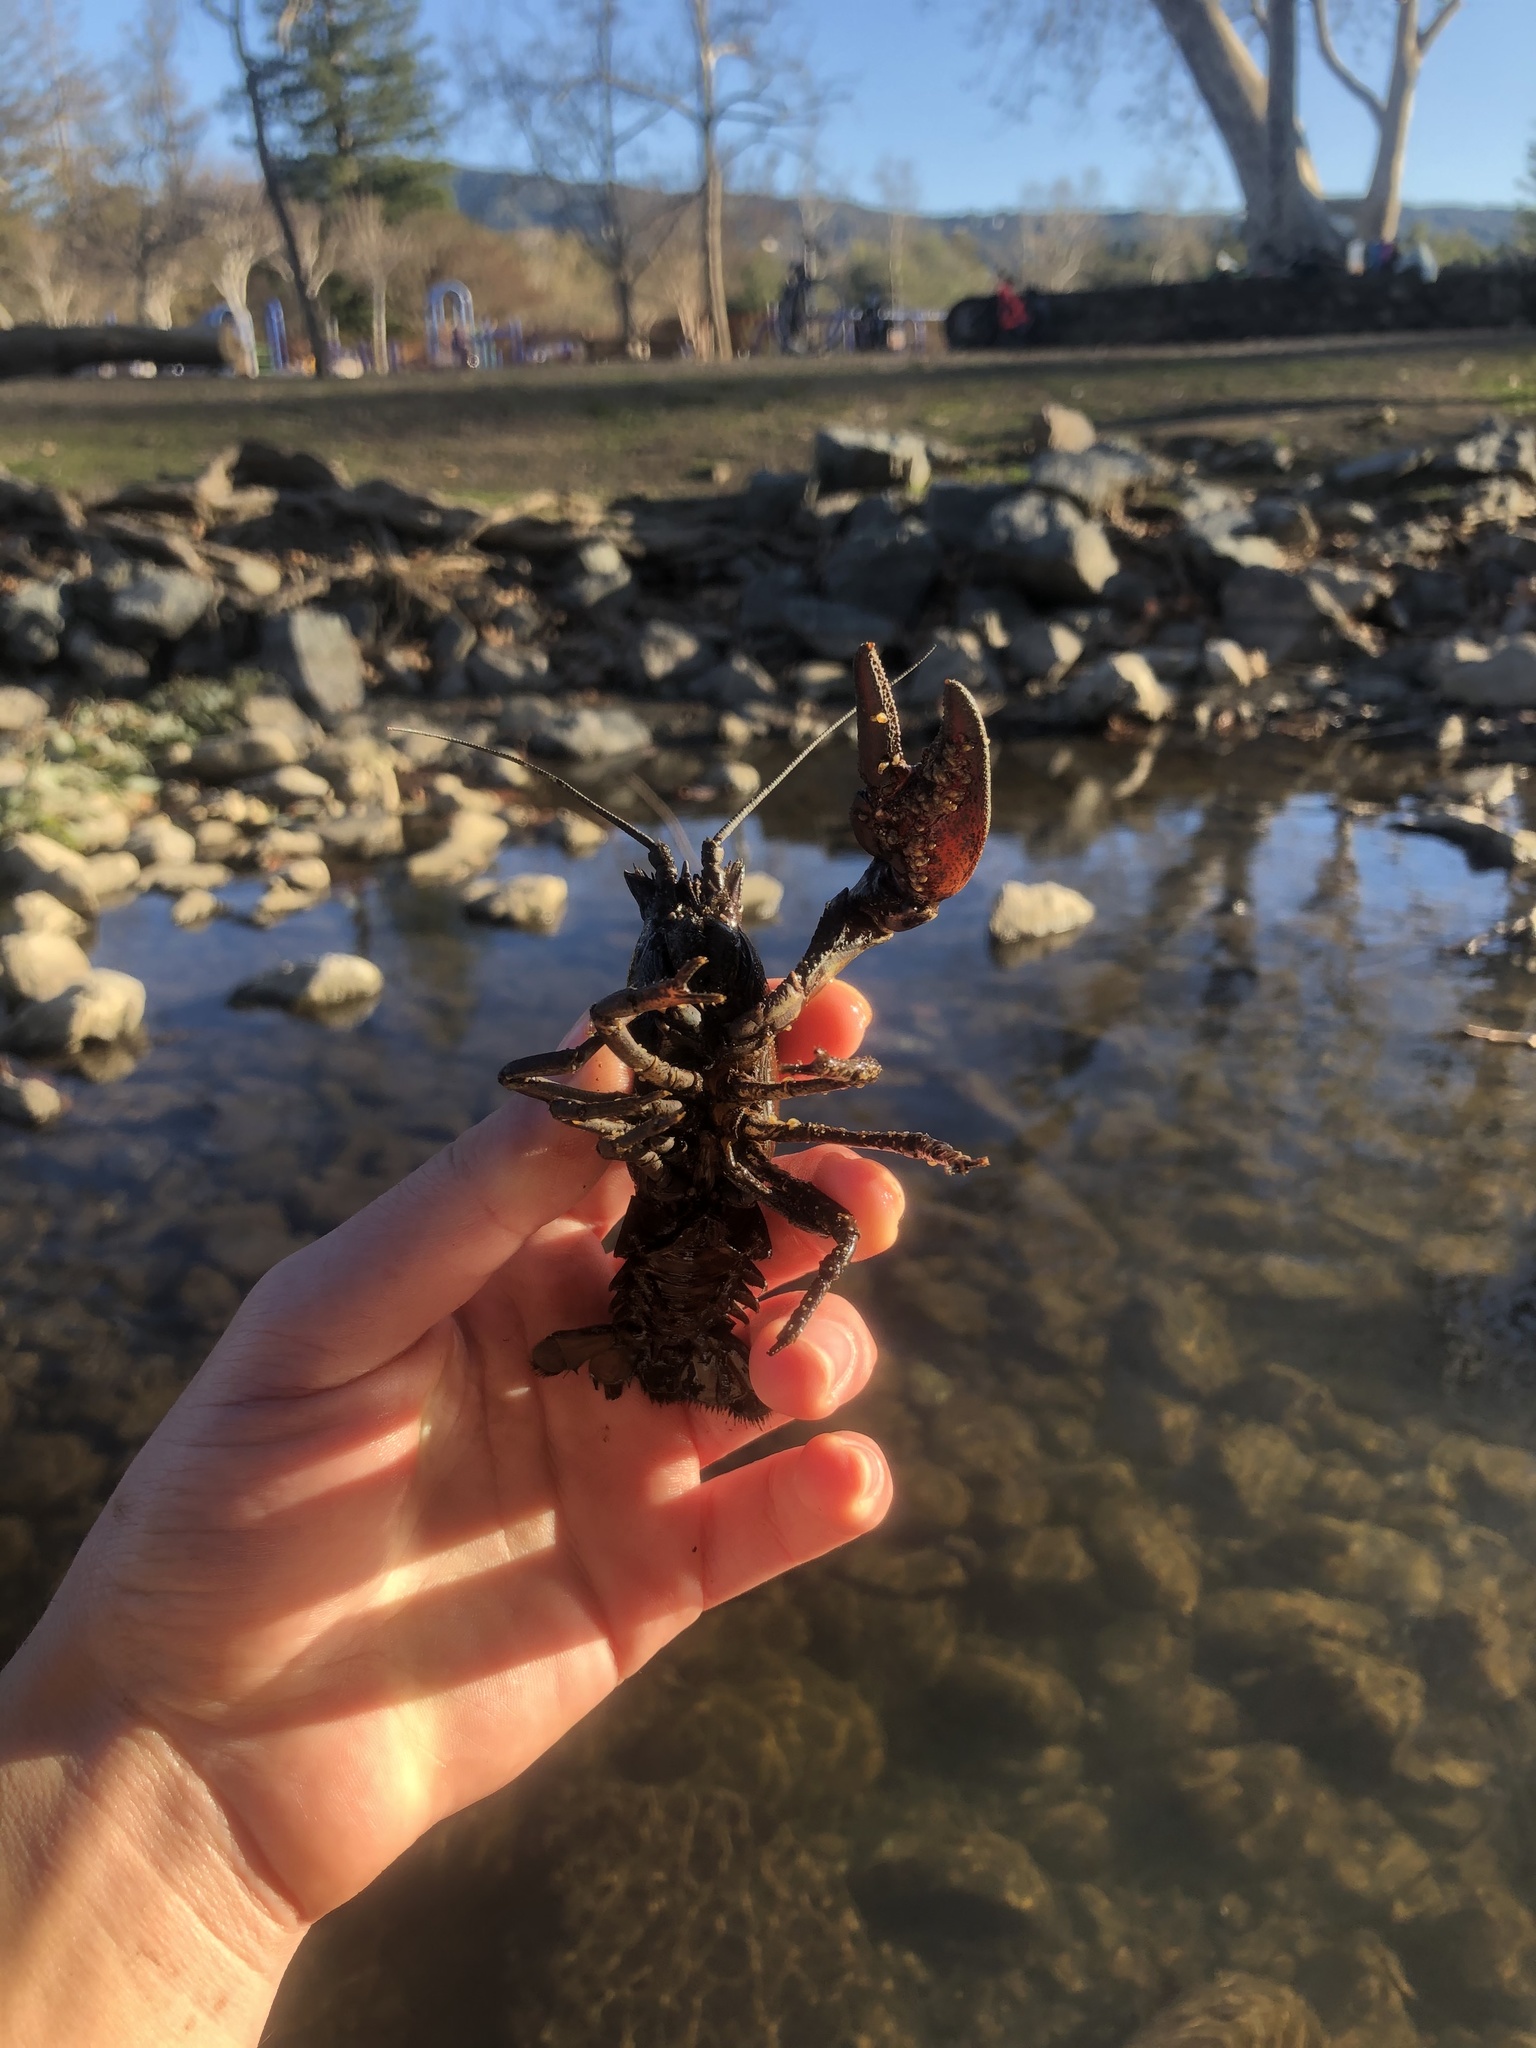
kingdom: Animalia
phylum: Arthropoda
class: Malacostraca
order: Decapoda
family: Astacidae
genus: Pacifastacus
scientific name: Pacifastacus leniusculus
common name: Signal crayfish
